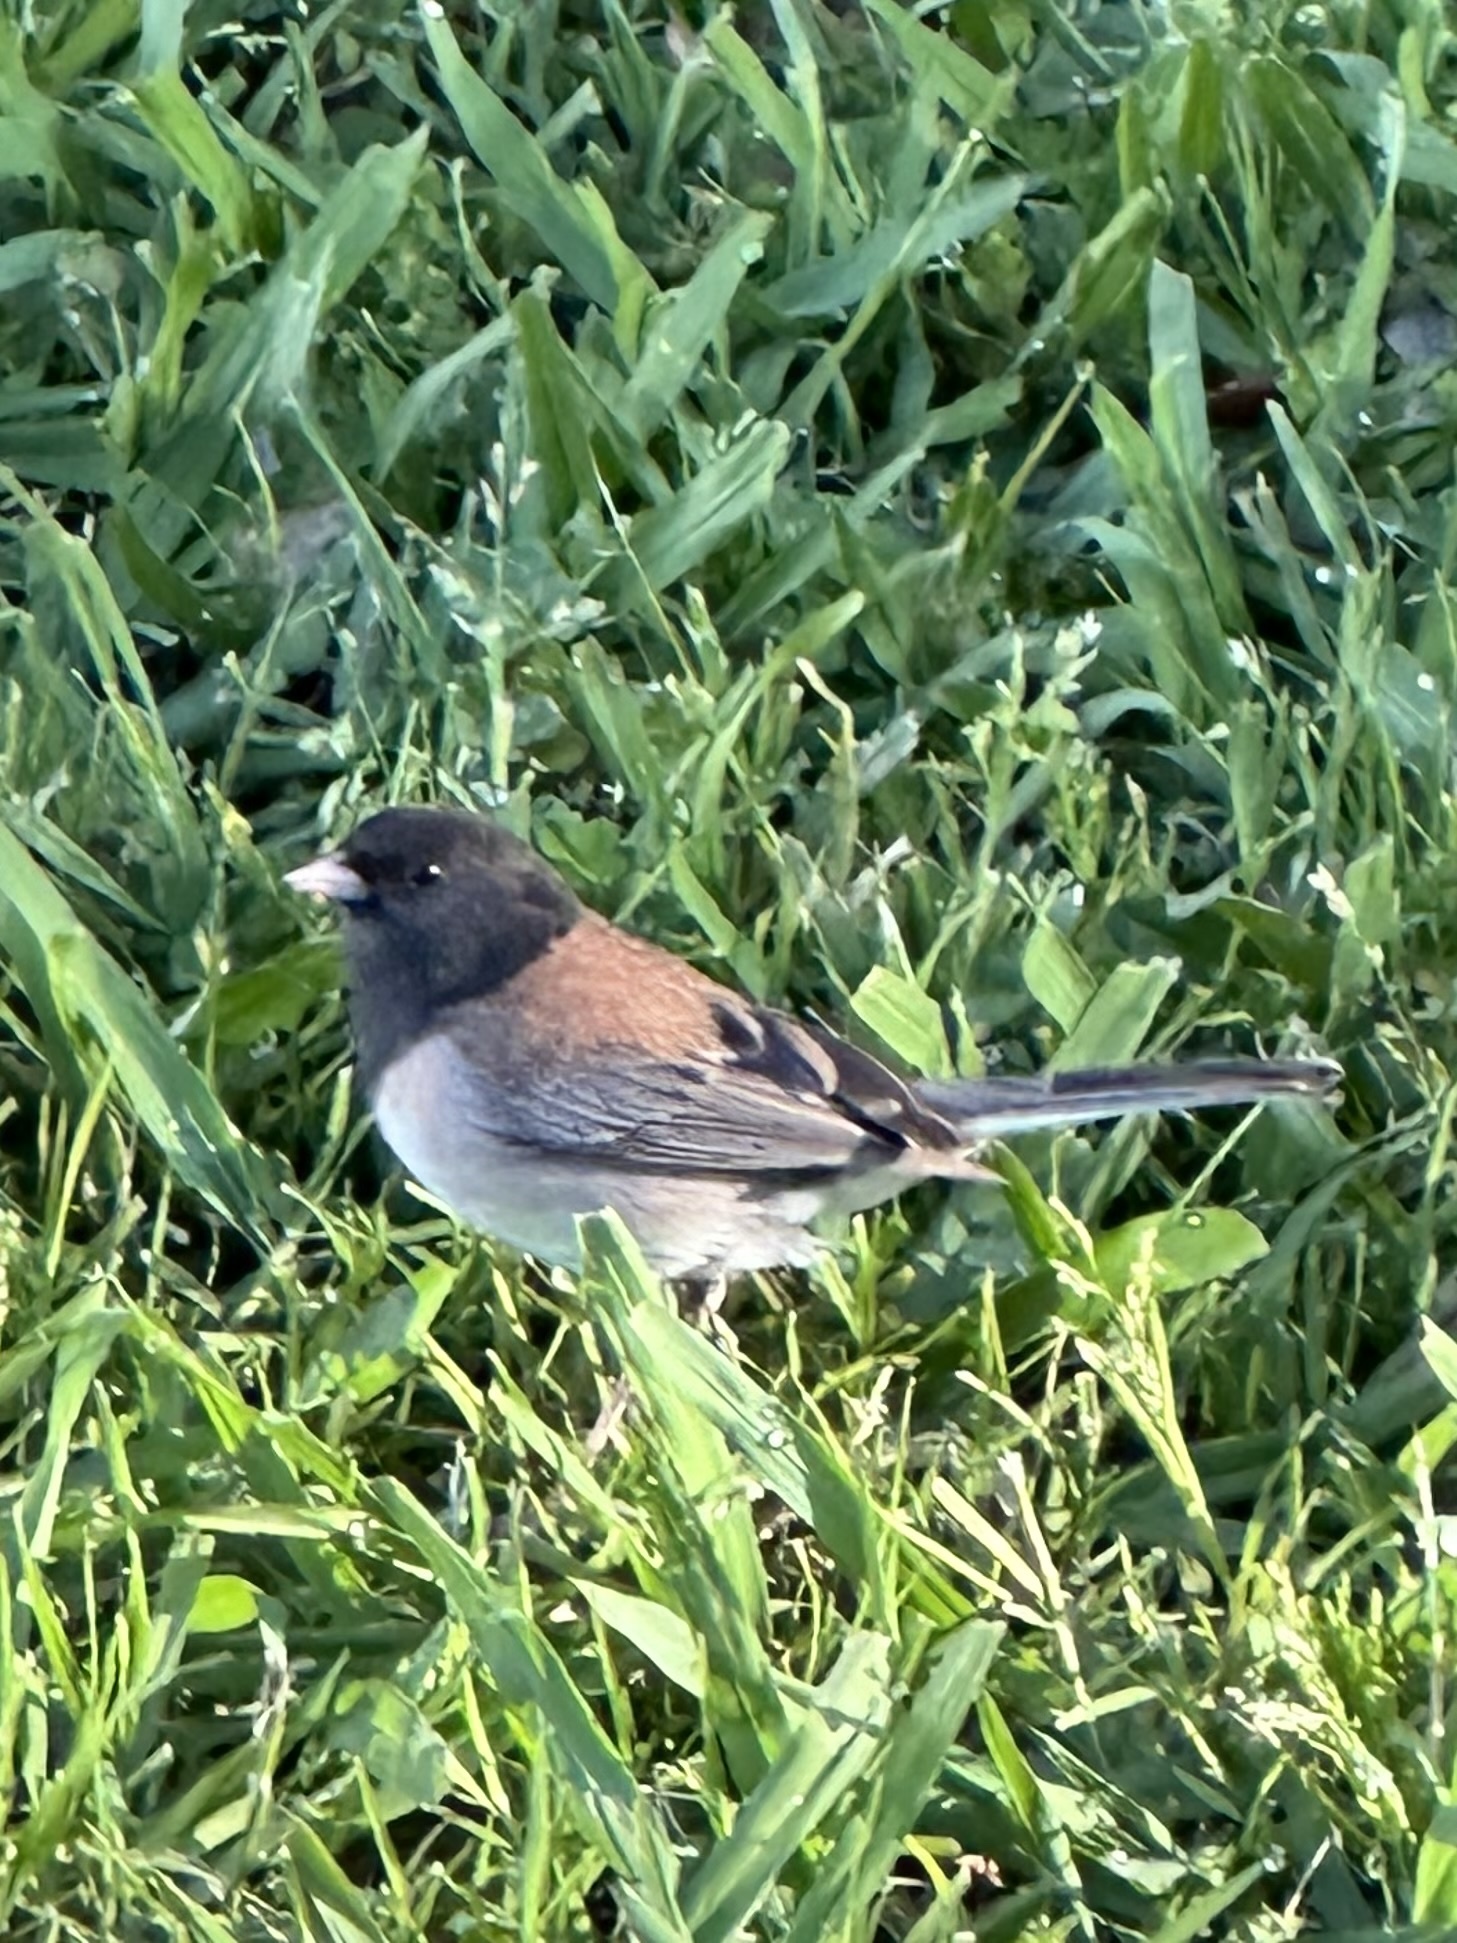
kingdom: Animalia
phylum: Chordata
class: Aves
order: Passeriformes
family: Passerellidae
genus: Junco
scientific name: Junco hyemalis
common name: Dark-eyed junco
